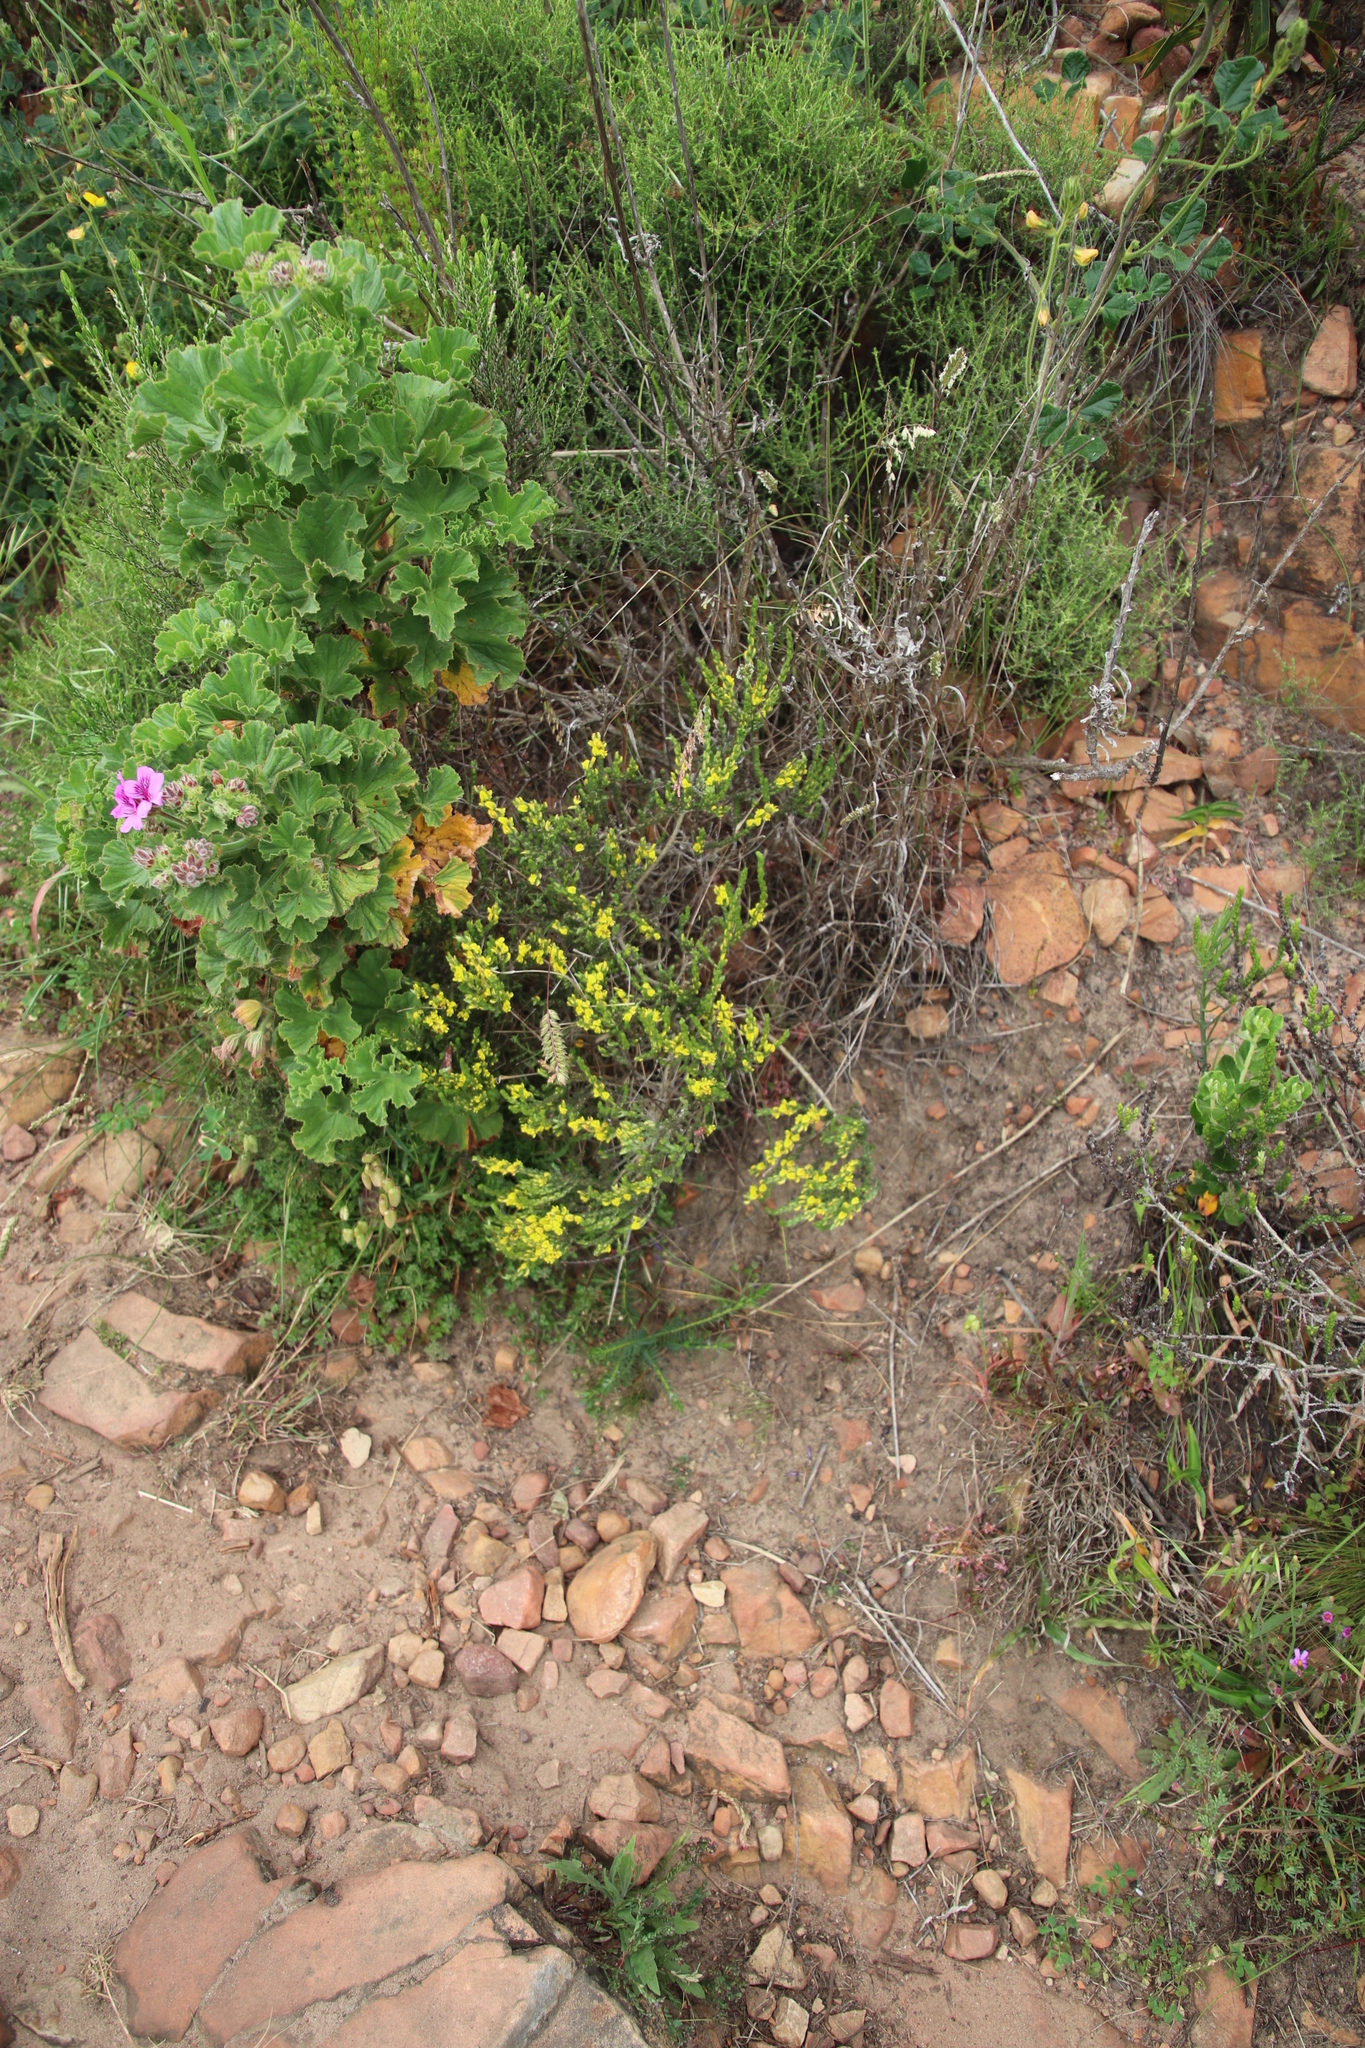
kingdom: Plantae
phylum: Tracheophyta
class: Magnoliopsida
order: Fabales
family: Fabaceae
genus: Aspalathus
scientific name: Aspalathus ericifolia
